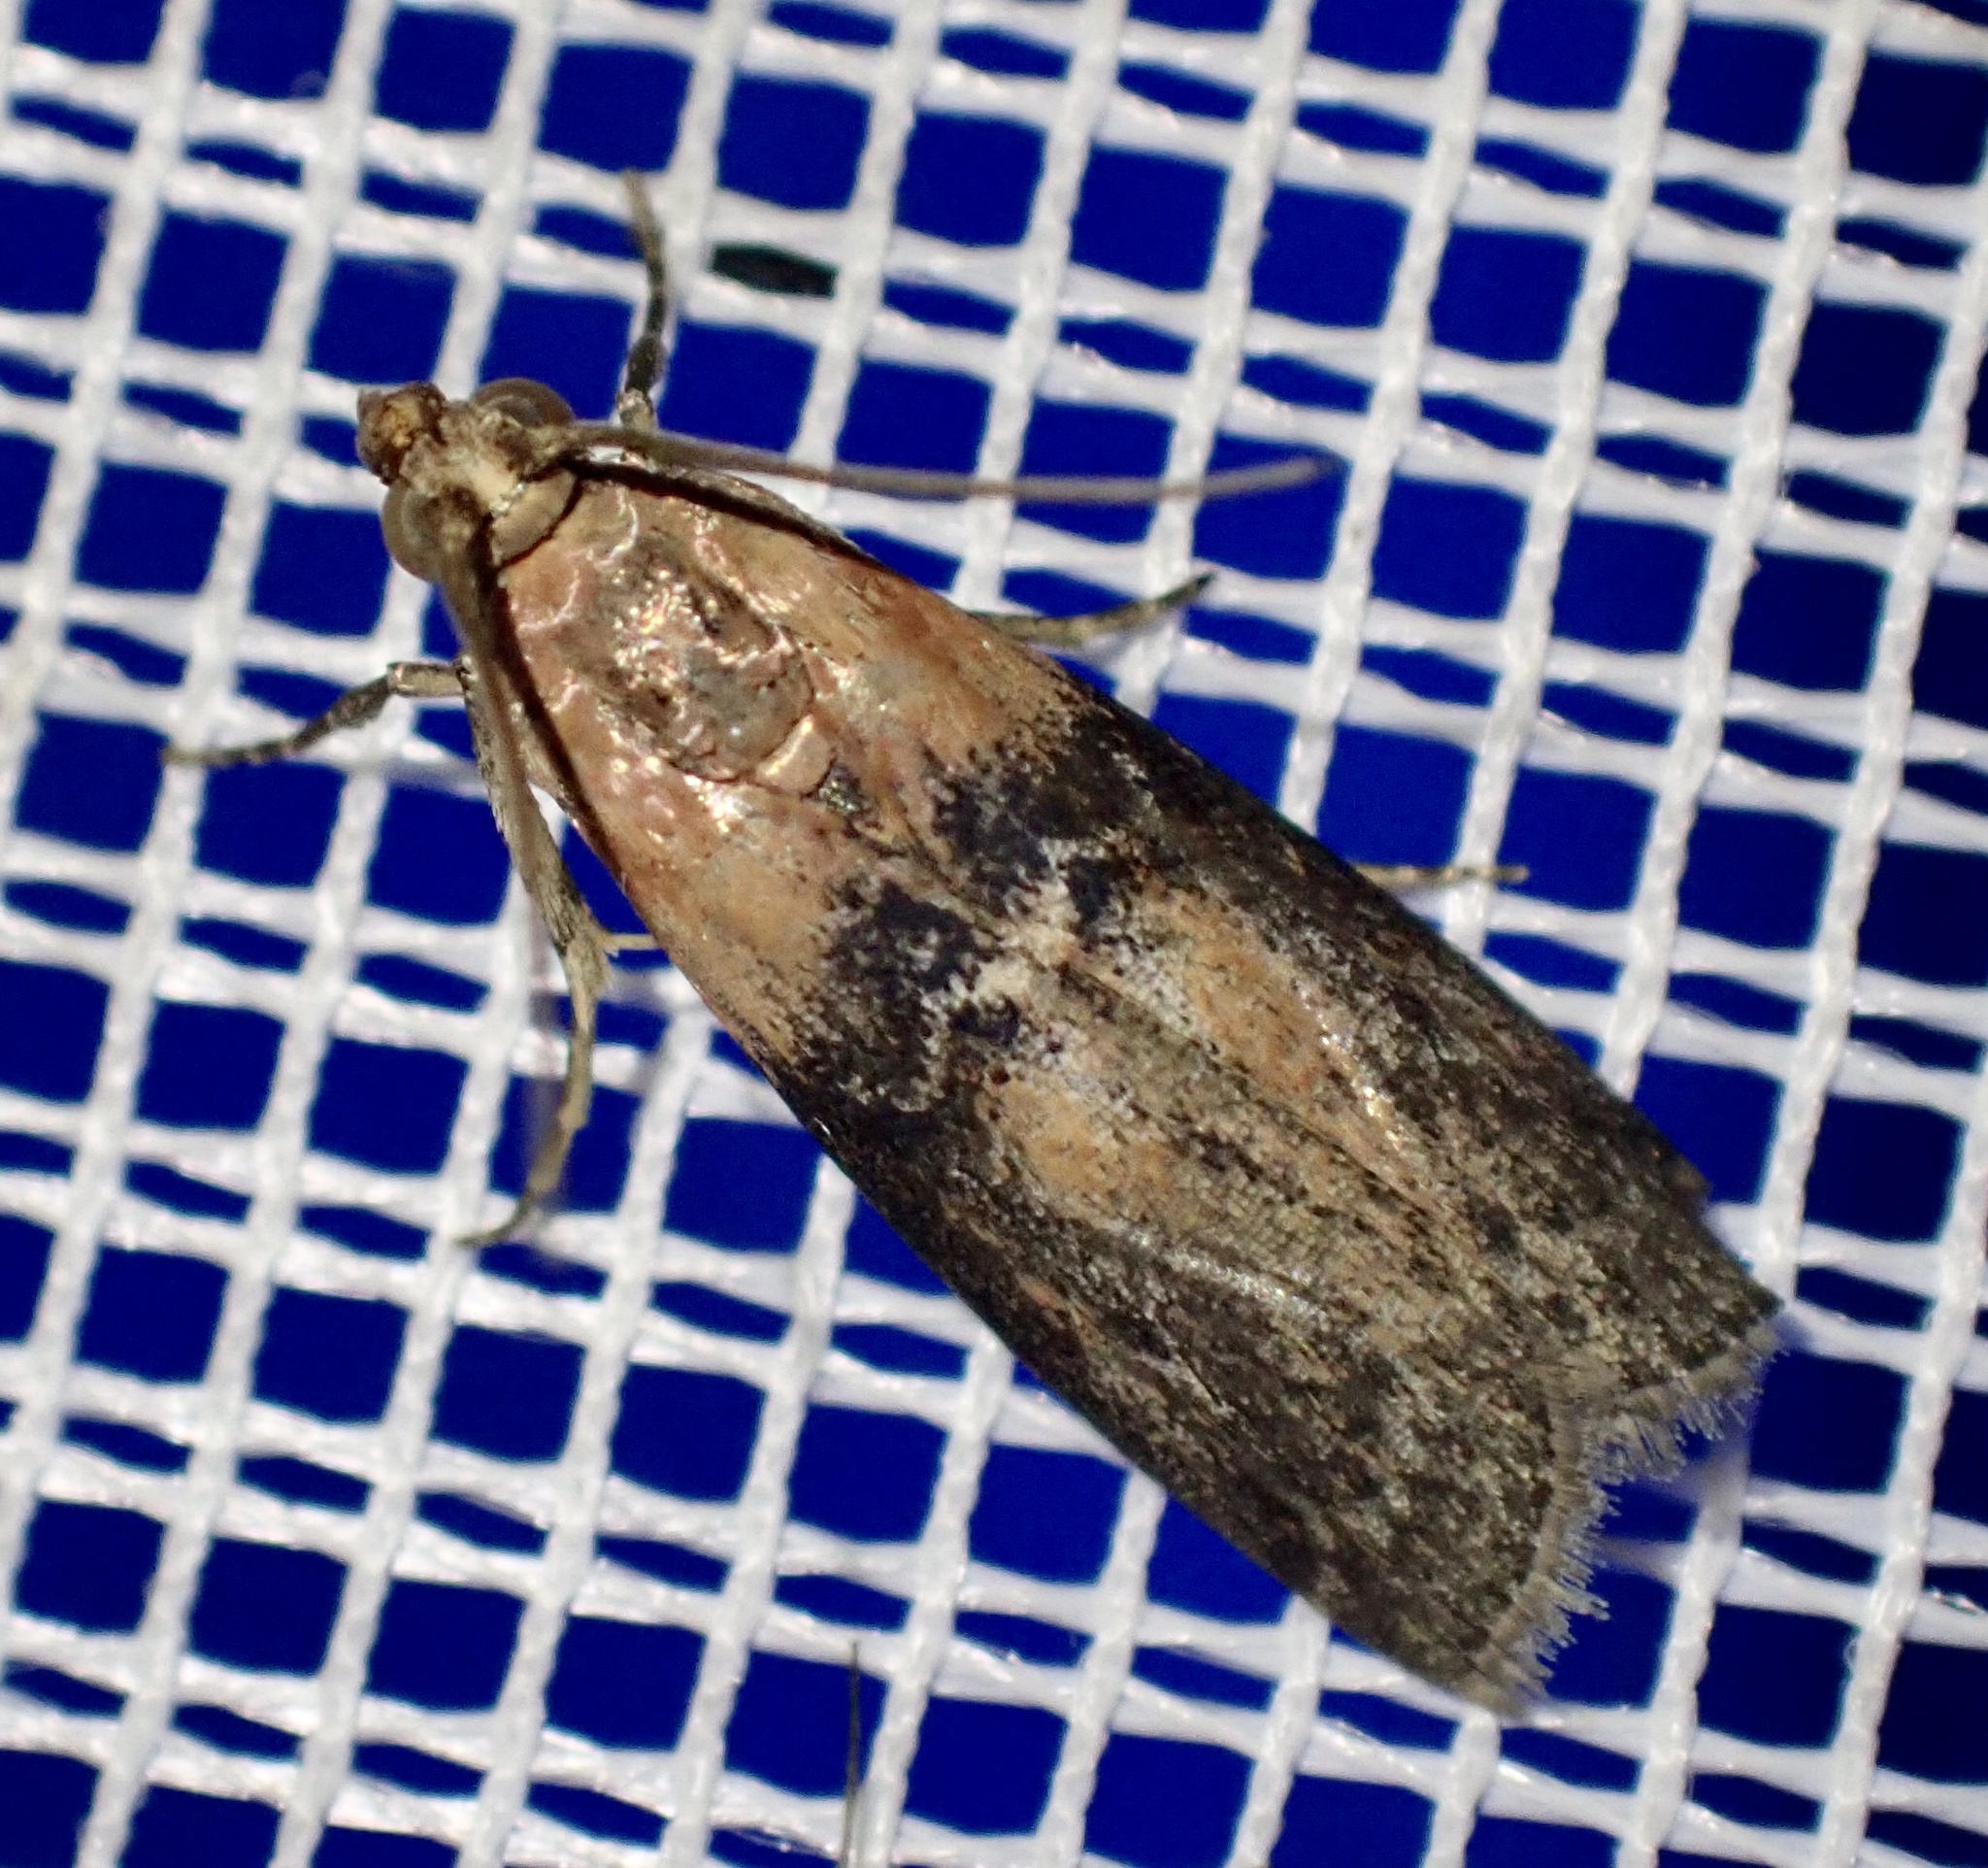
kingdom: Animalia
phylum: Arthropoda
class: Insecta
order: Lepidoptera
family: Pyralidae
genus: Sciota
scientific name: Sciota adelphella
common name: Willow knot-horn
